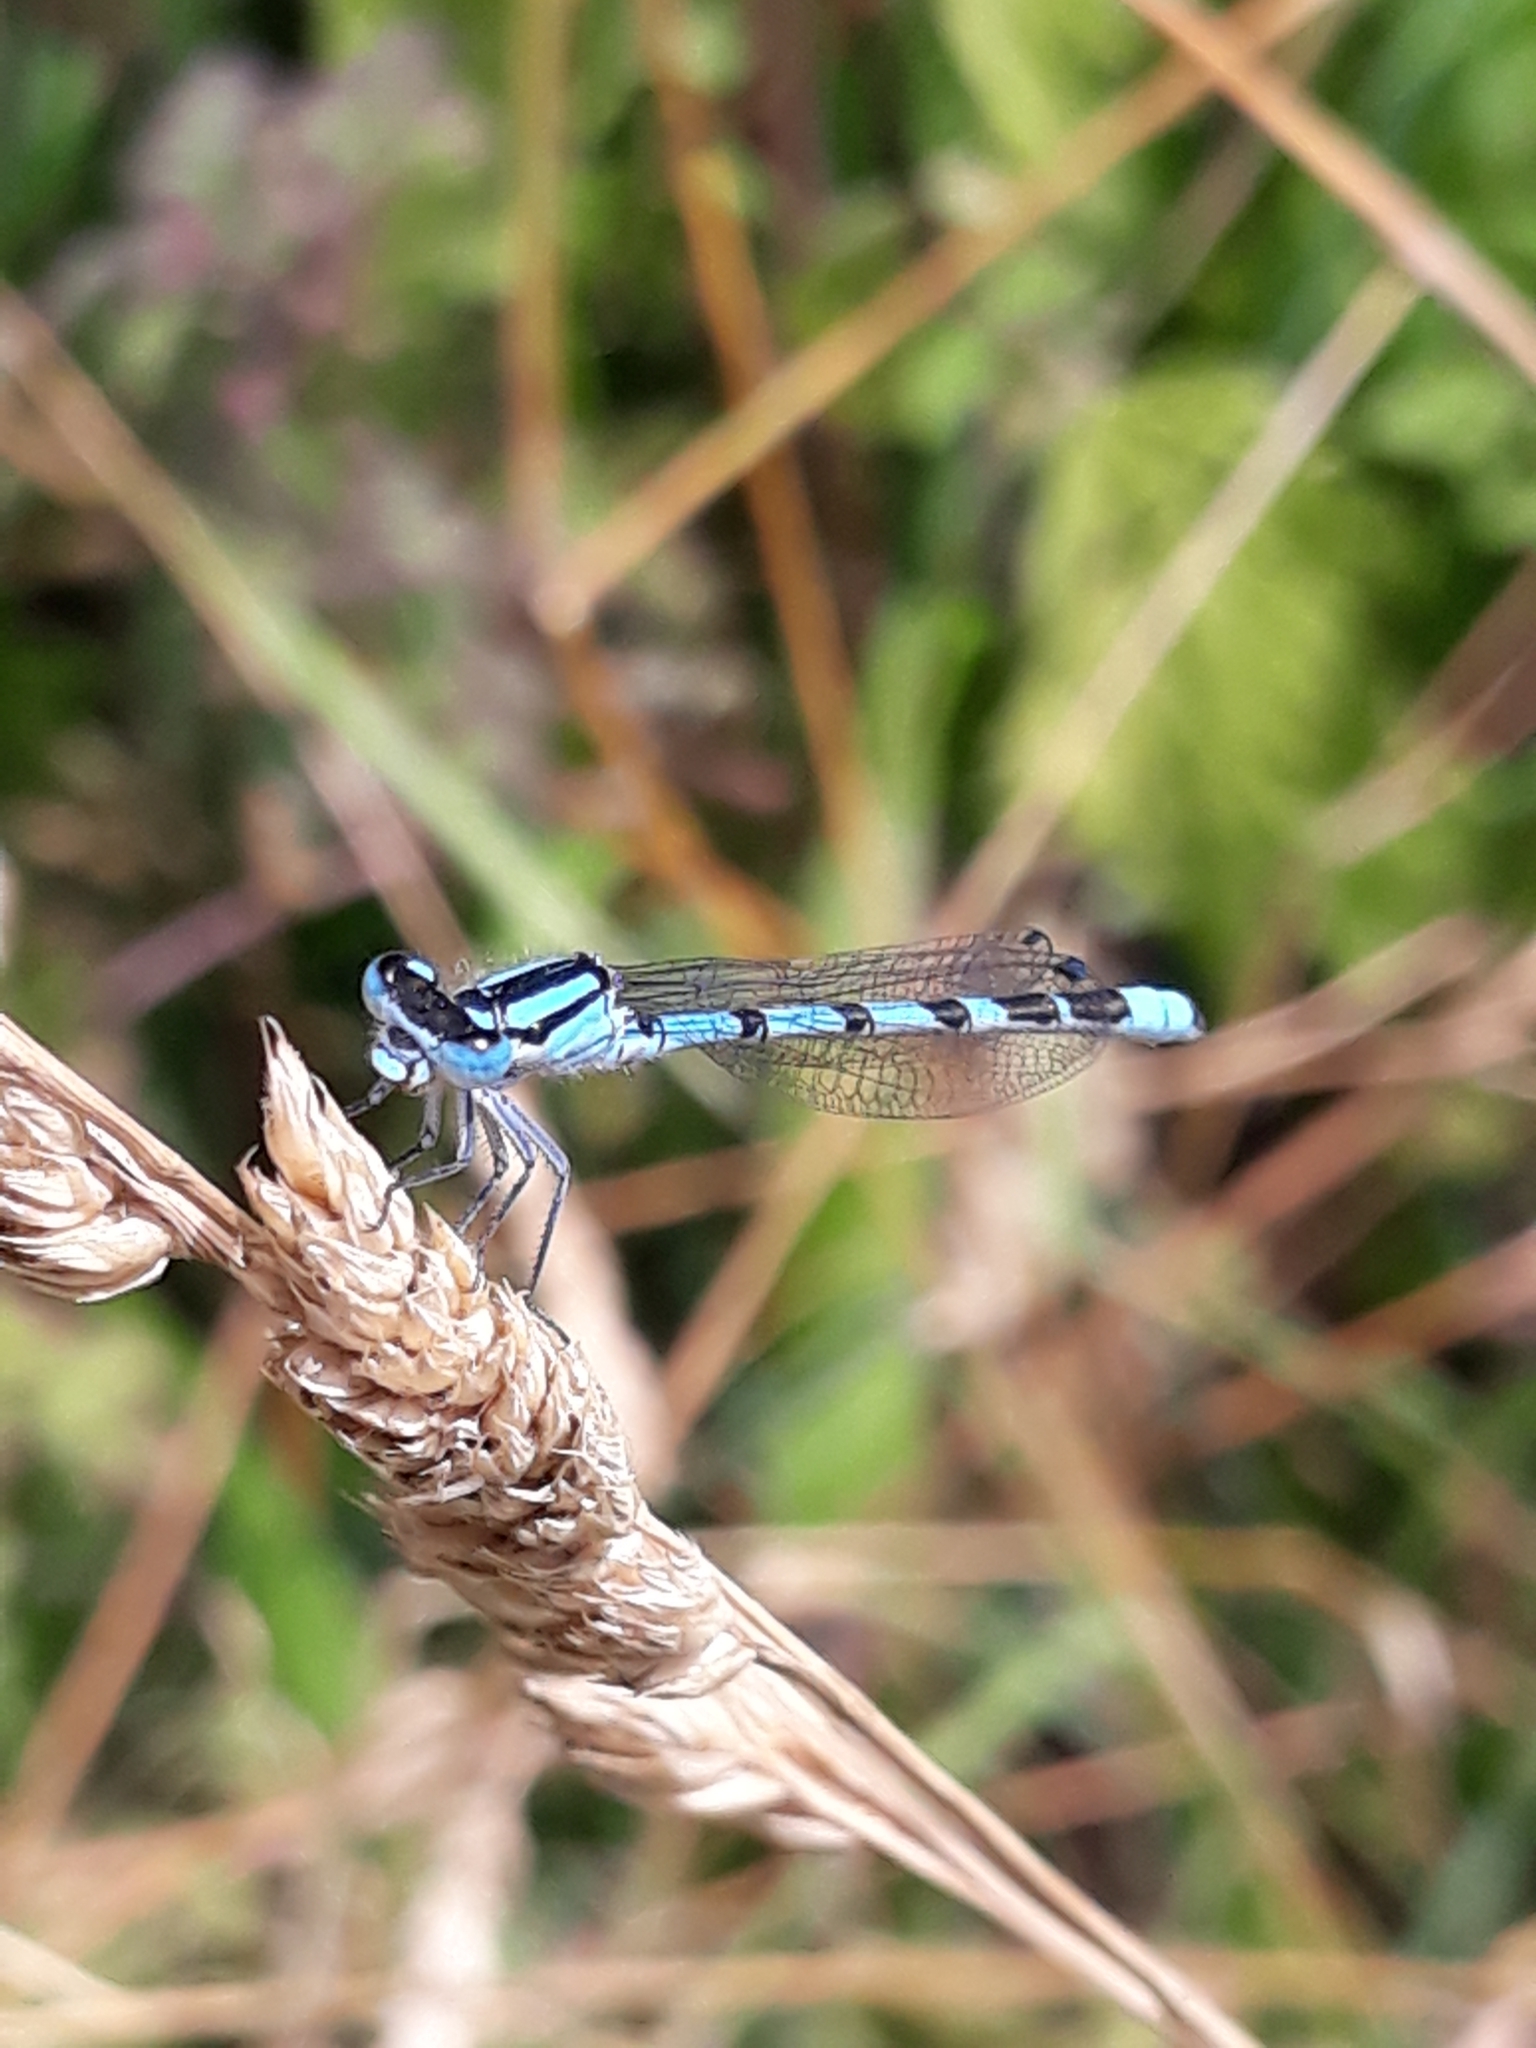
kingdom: Animalia
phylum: Arthropoda
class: Insecta
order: Odonata
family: Coenagrionidae
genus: Enallagma
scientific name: Enallagma cyathigerum
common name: Common blue damselfly
